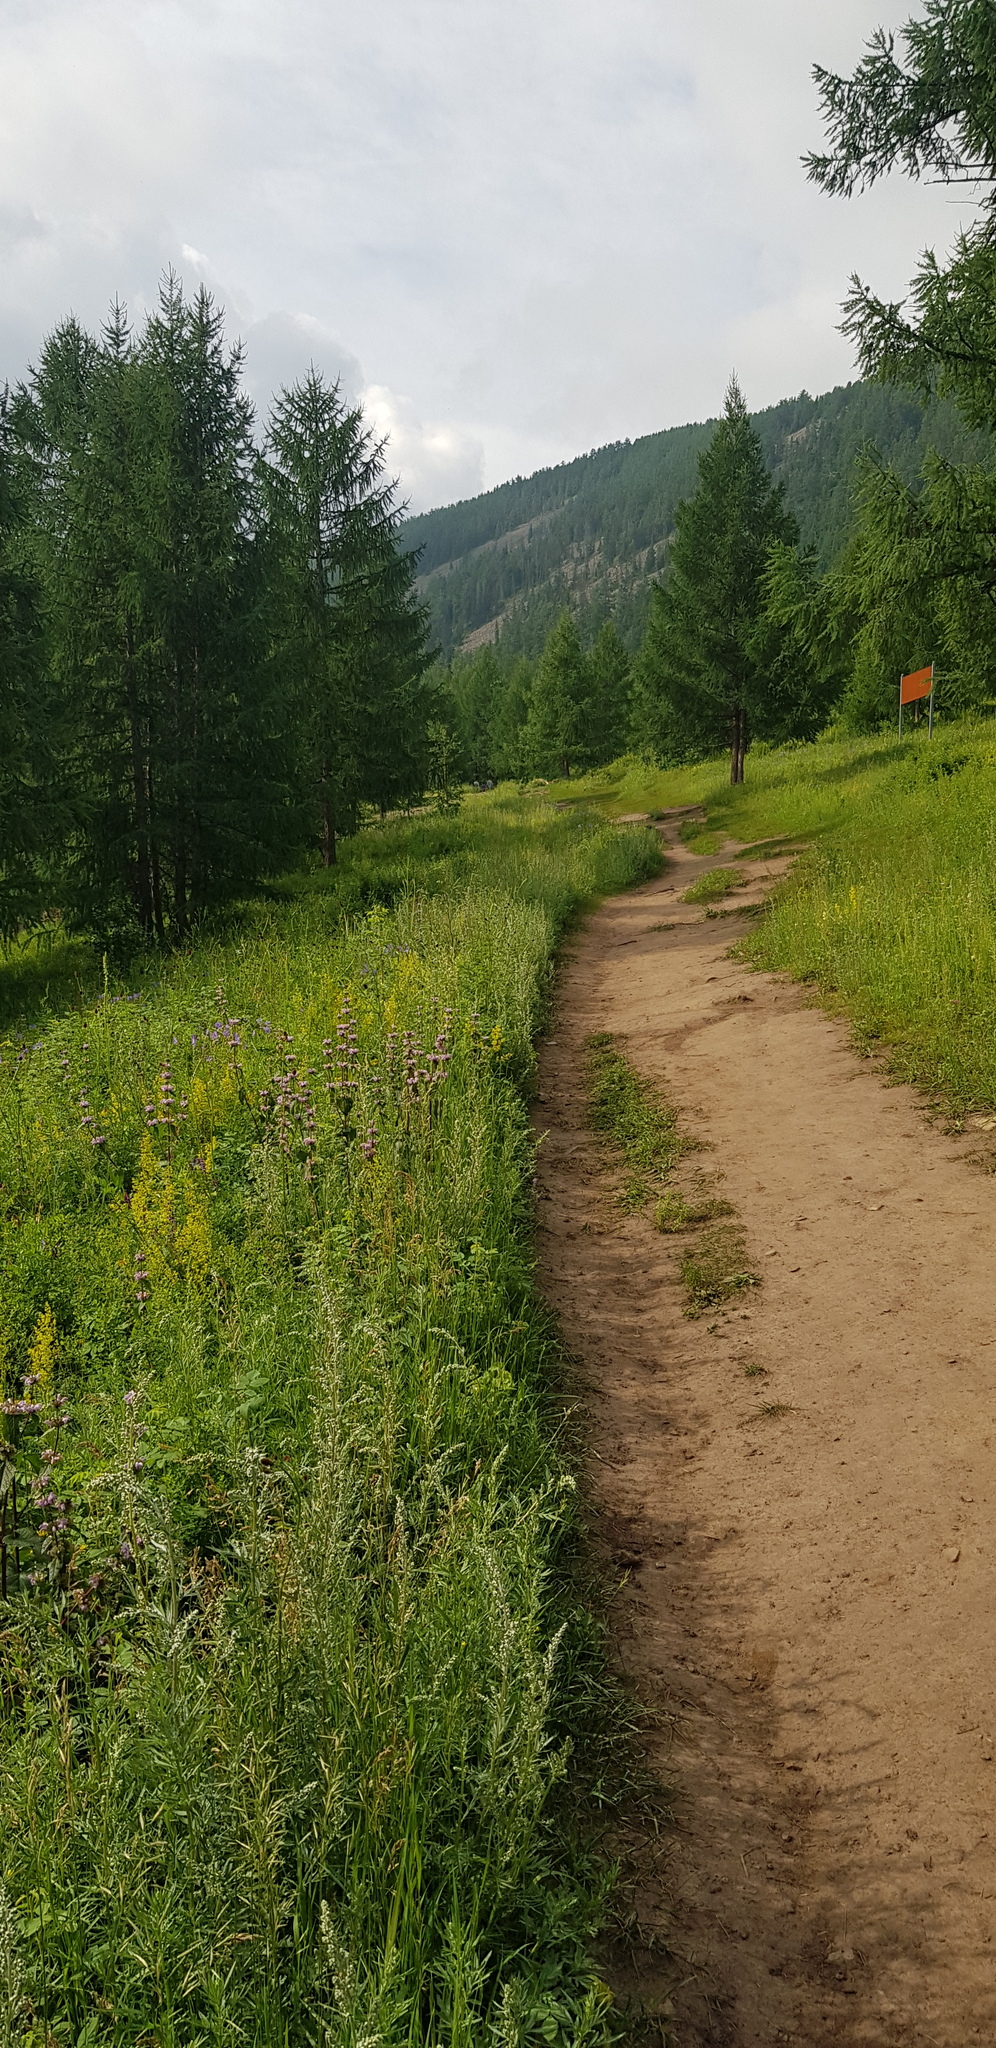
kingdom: Plantae
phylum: Tracheophyta
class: Pinopsida
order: Pinales
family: Pinaceae
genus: Larix
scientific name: Larix sibirica
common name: Siberian larch
